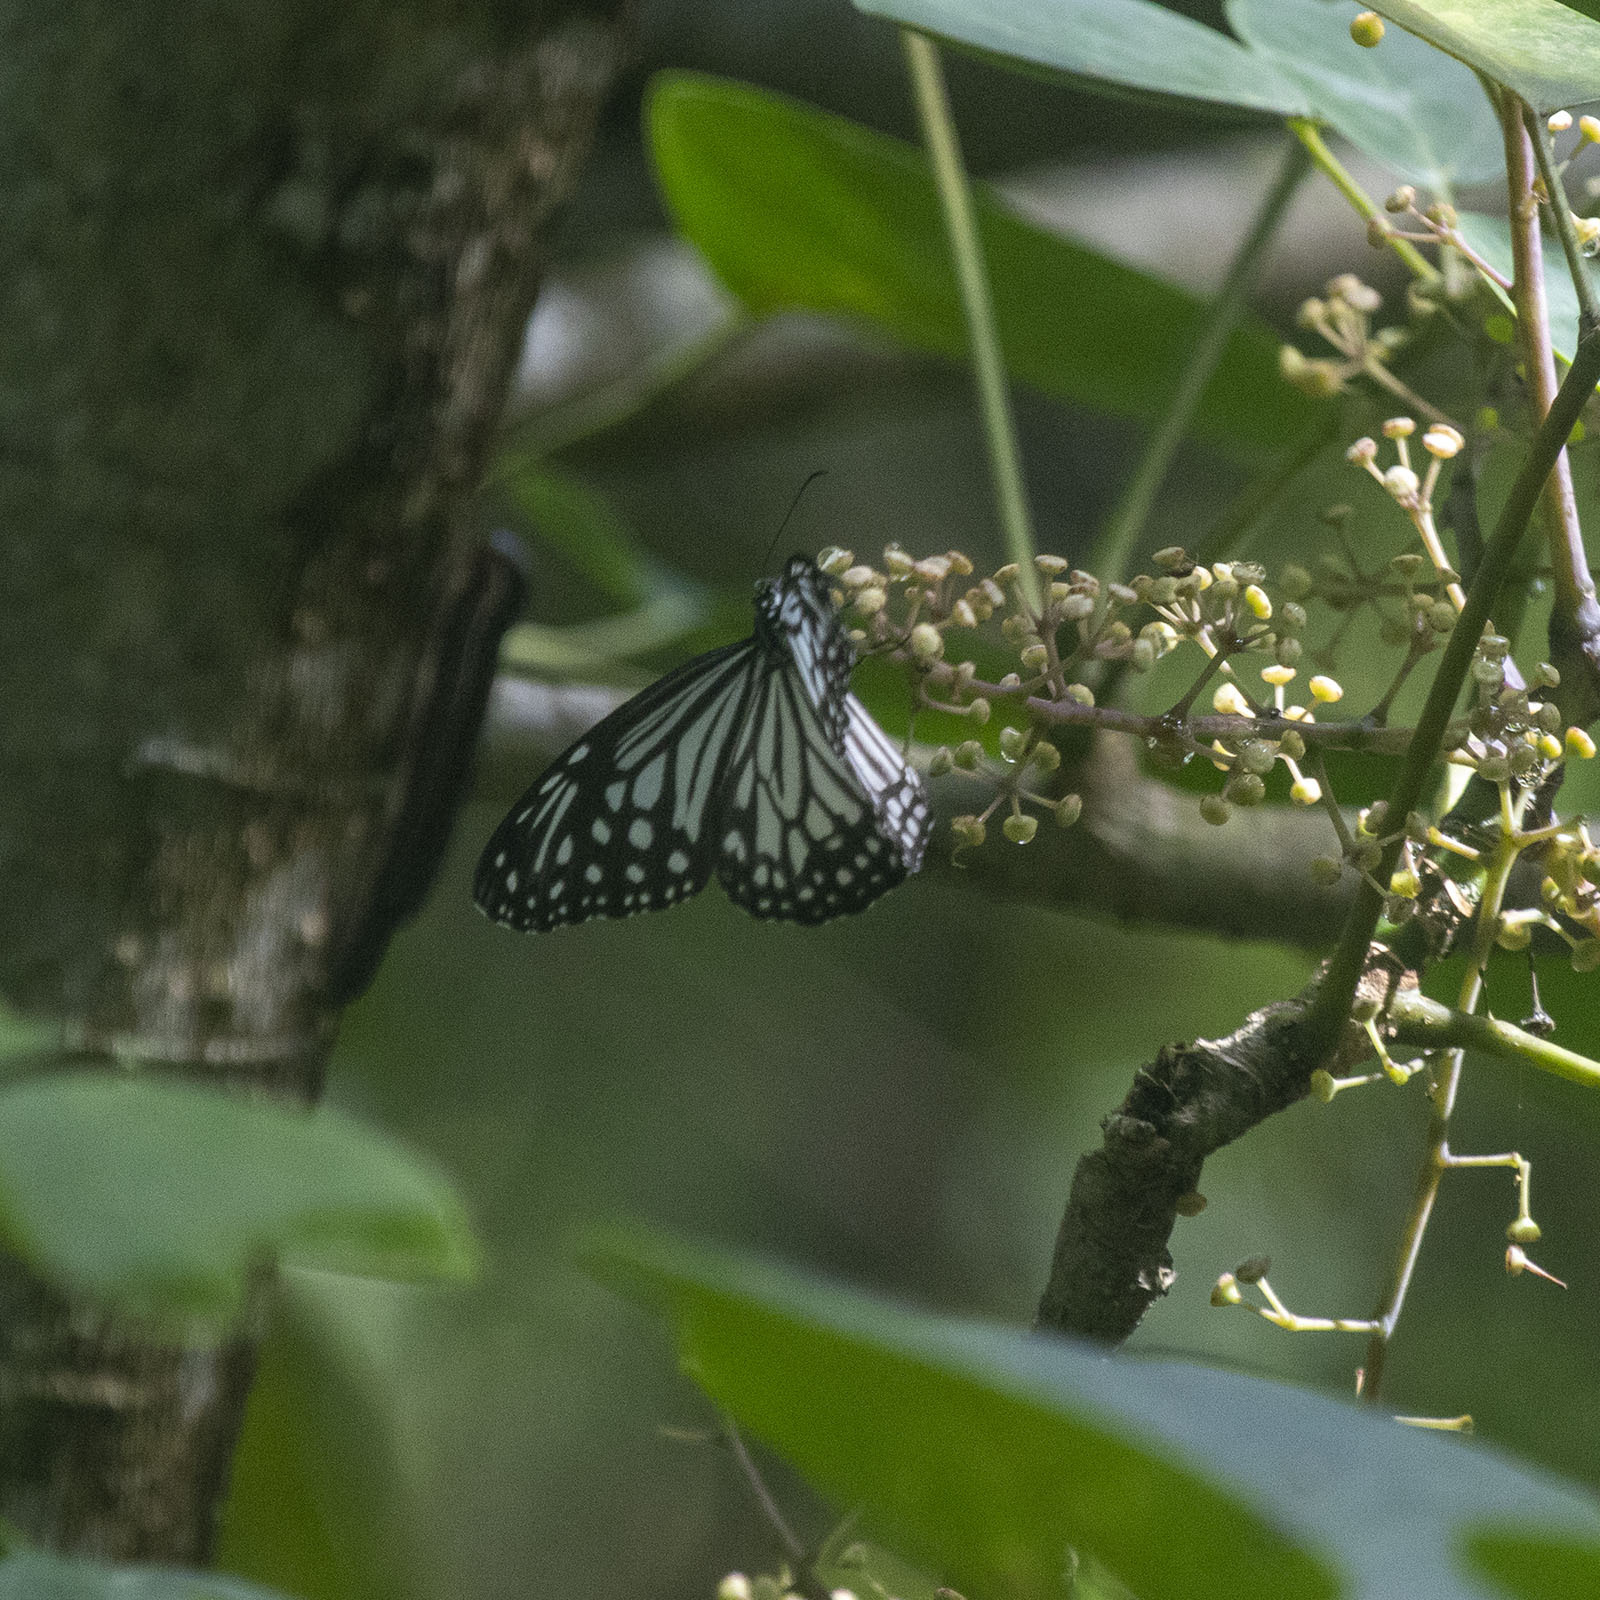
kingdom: Animalia
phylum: Arthropoda
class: Insecta
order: Lepidoptera
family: Nymphalidae
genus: Parantica
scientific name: Parantica aglea
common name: Glassy tiger
